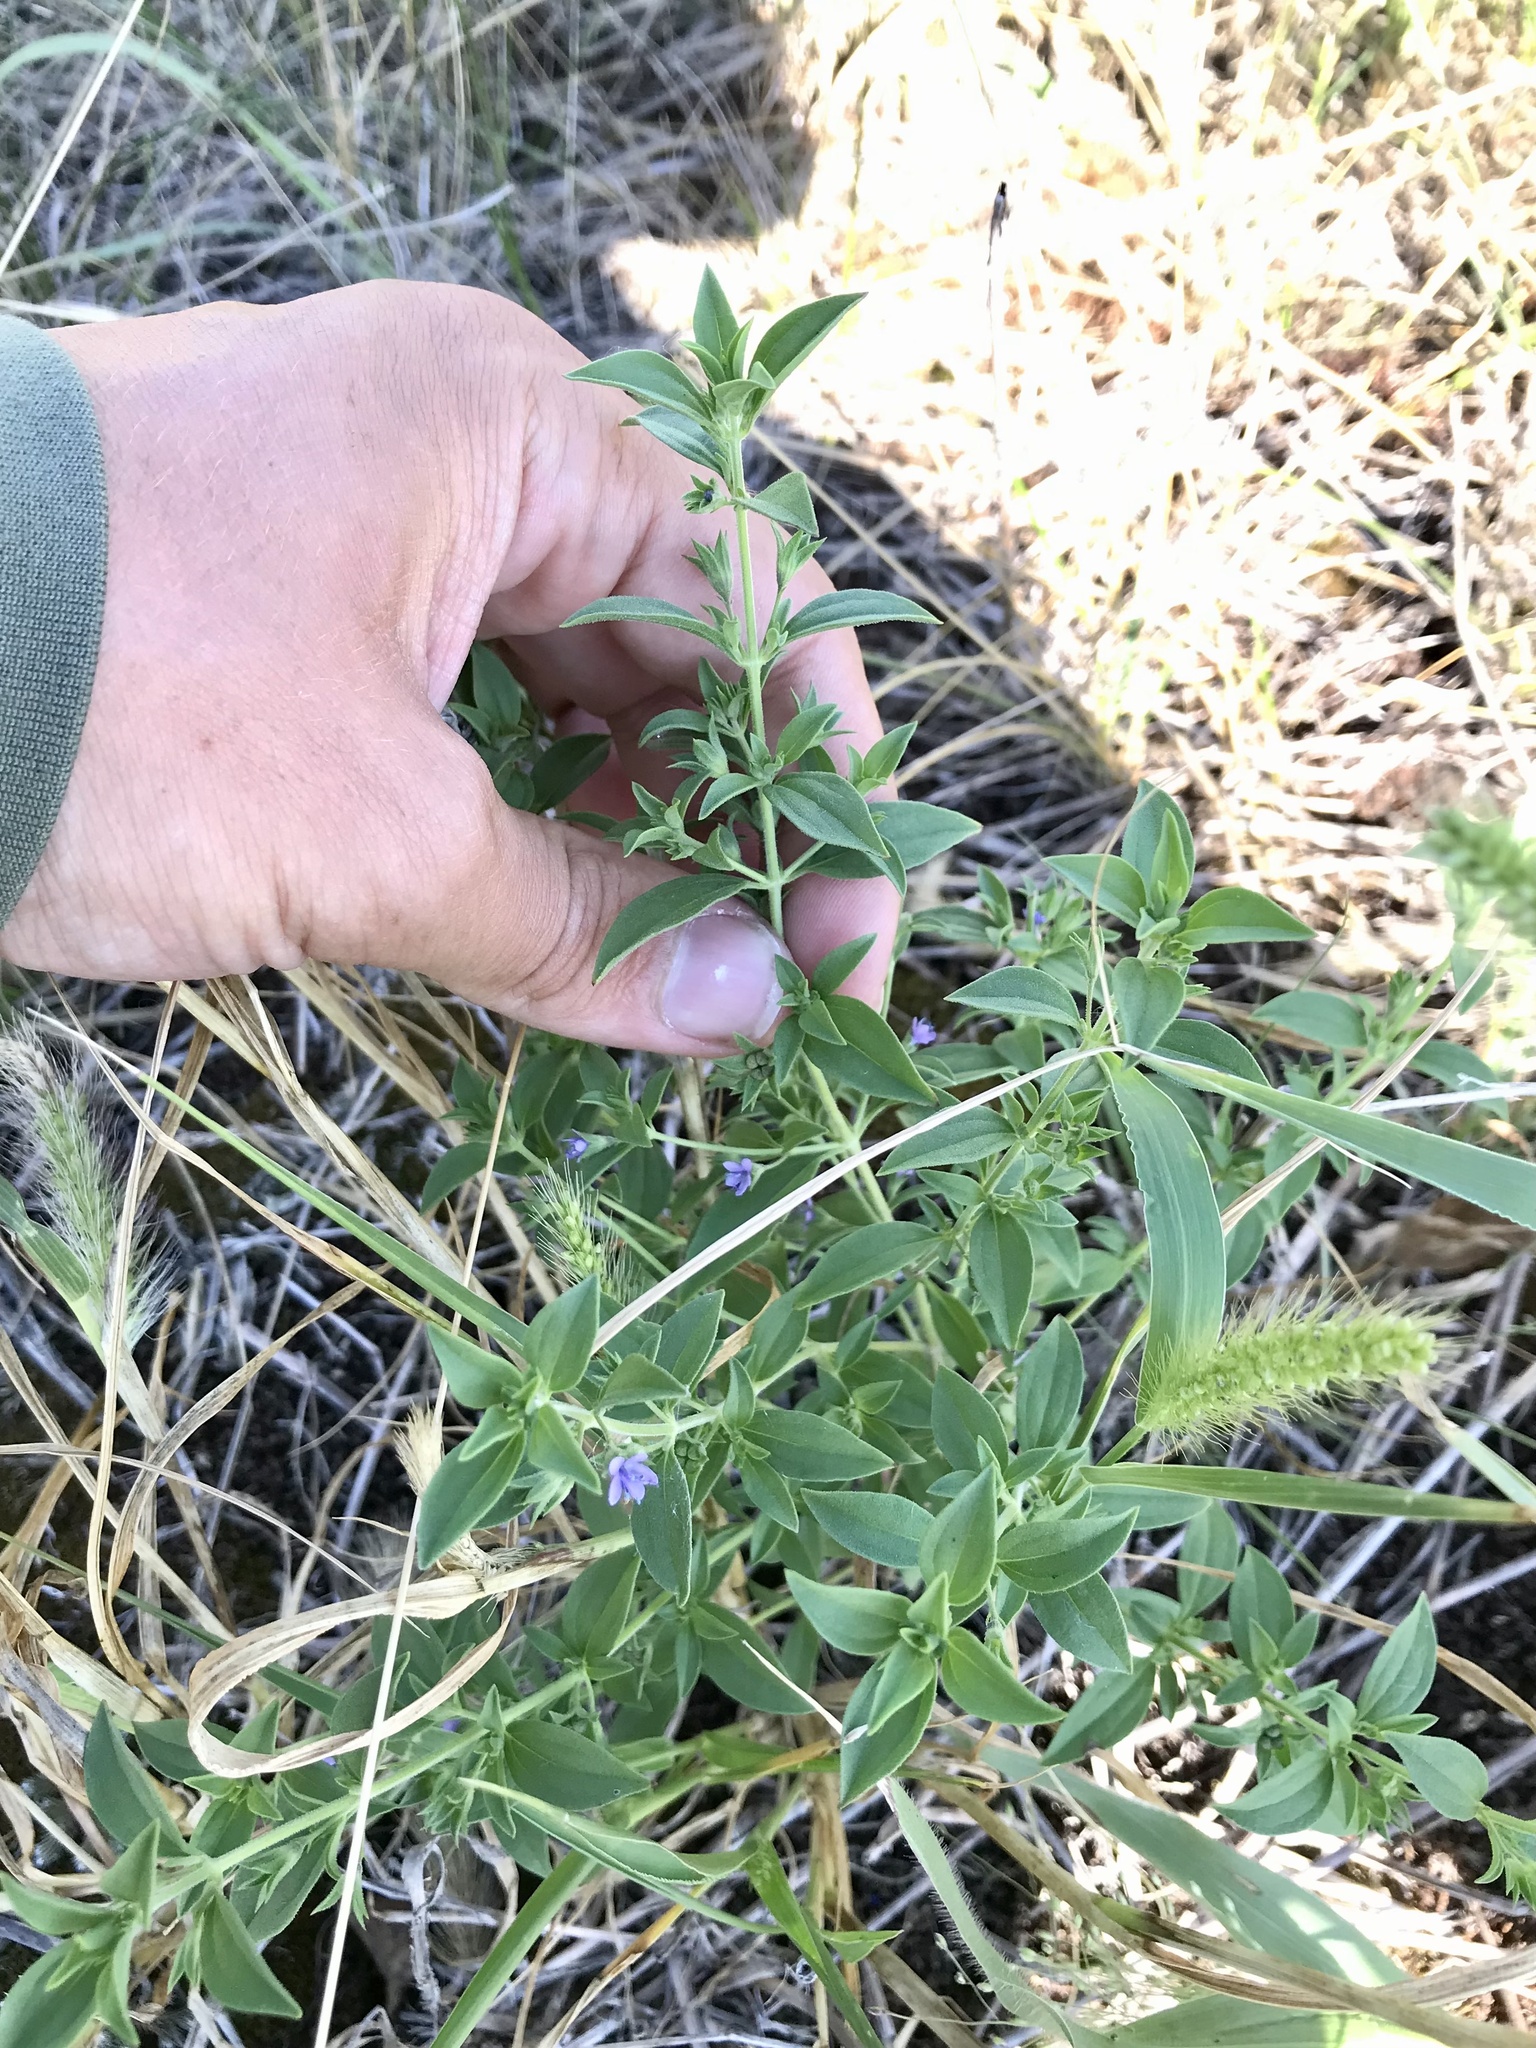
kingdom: Plantae
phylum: Tracheophyta
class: Magnoliopsida
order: Lamiales
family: Lamiaceae
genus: Trichostema
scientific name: Trichostema brachiatum
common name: False pennyroyal
